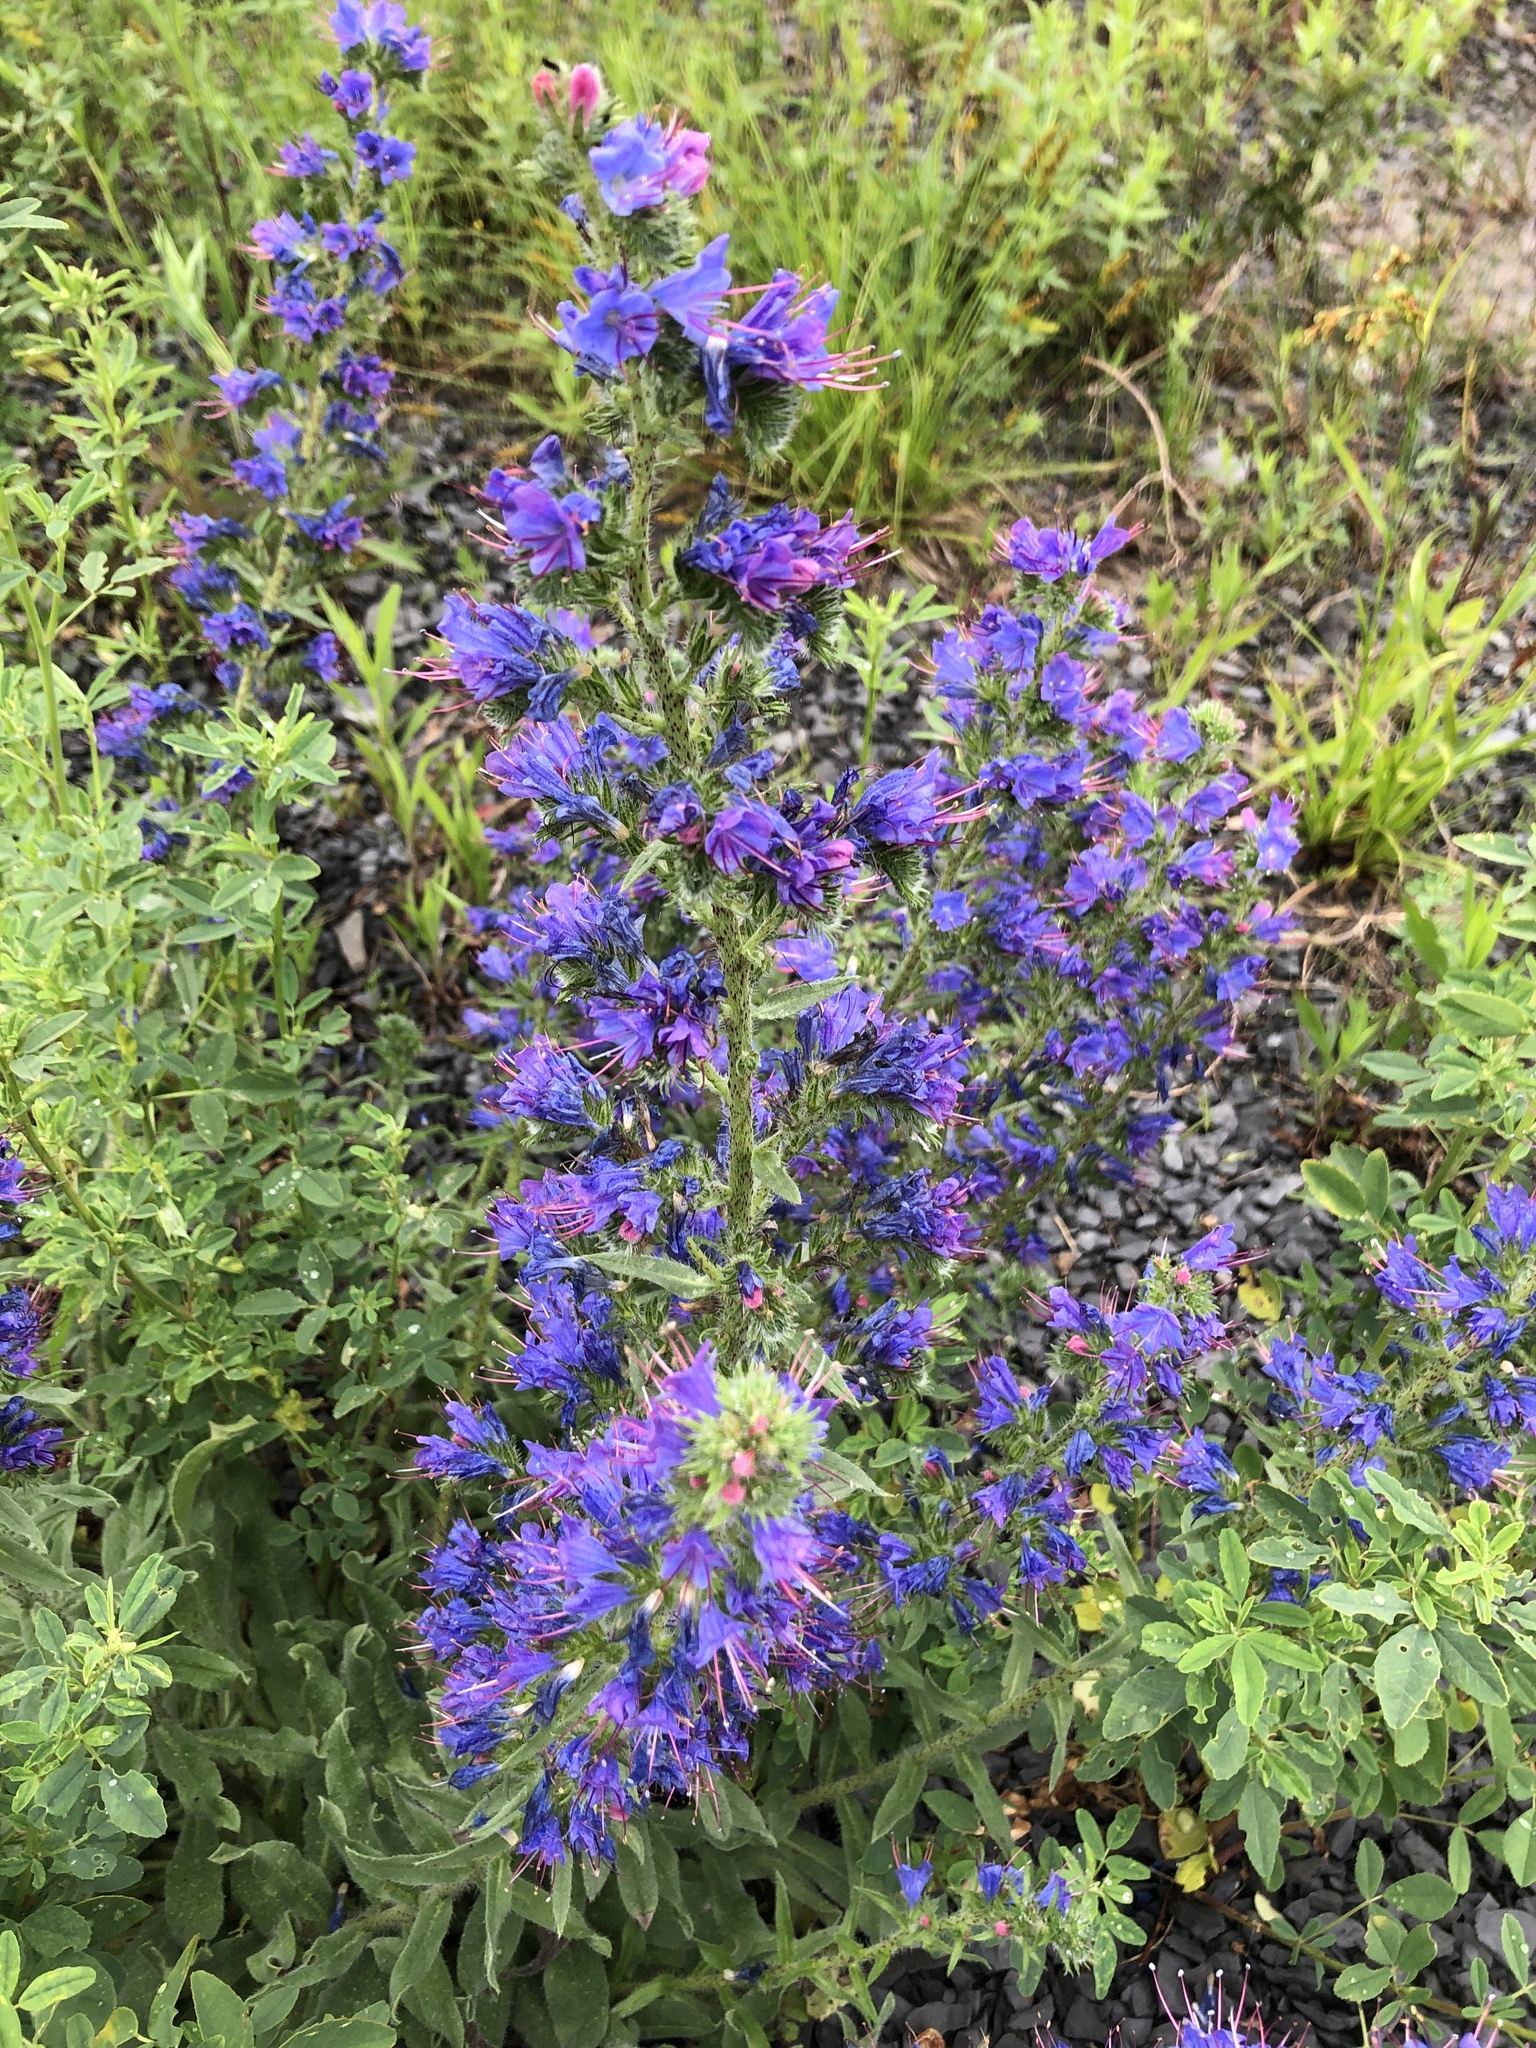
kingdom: Plantae
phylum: Tracheophyta
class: Magnoliopsida
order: Boraginales
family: Boraginaceae
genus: Echium
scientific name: Echium vulgare
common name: Common viper's bugloss
